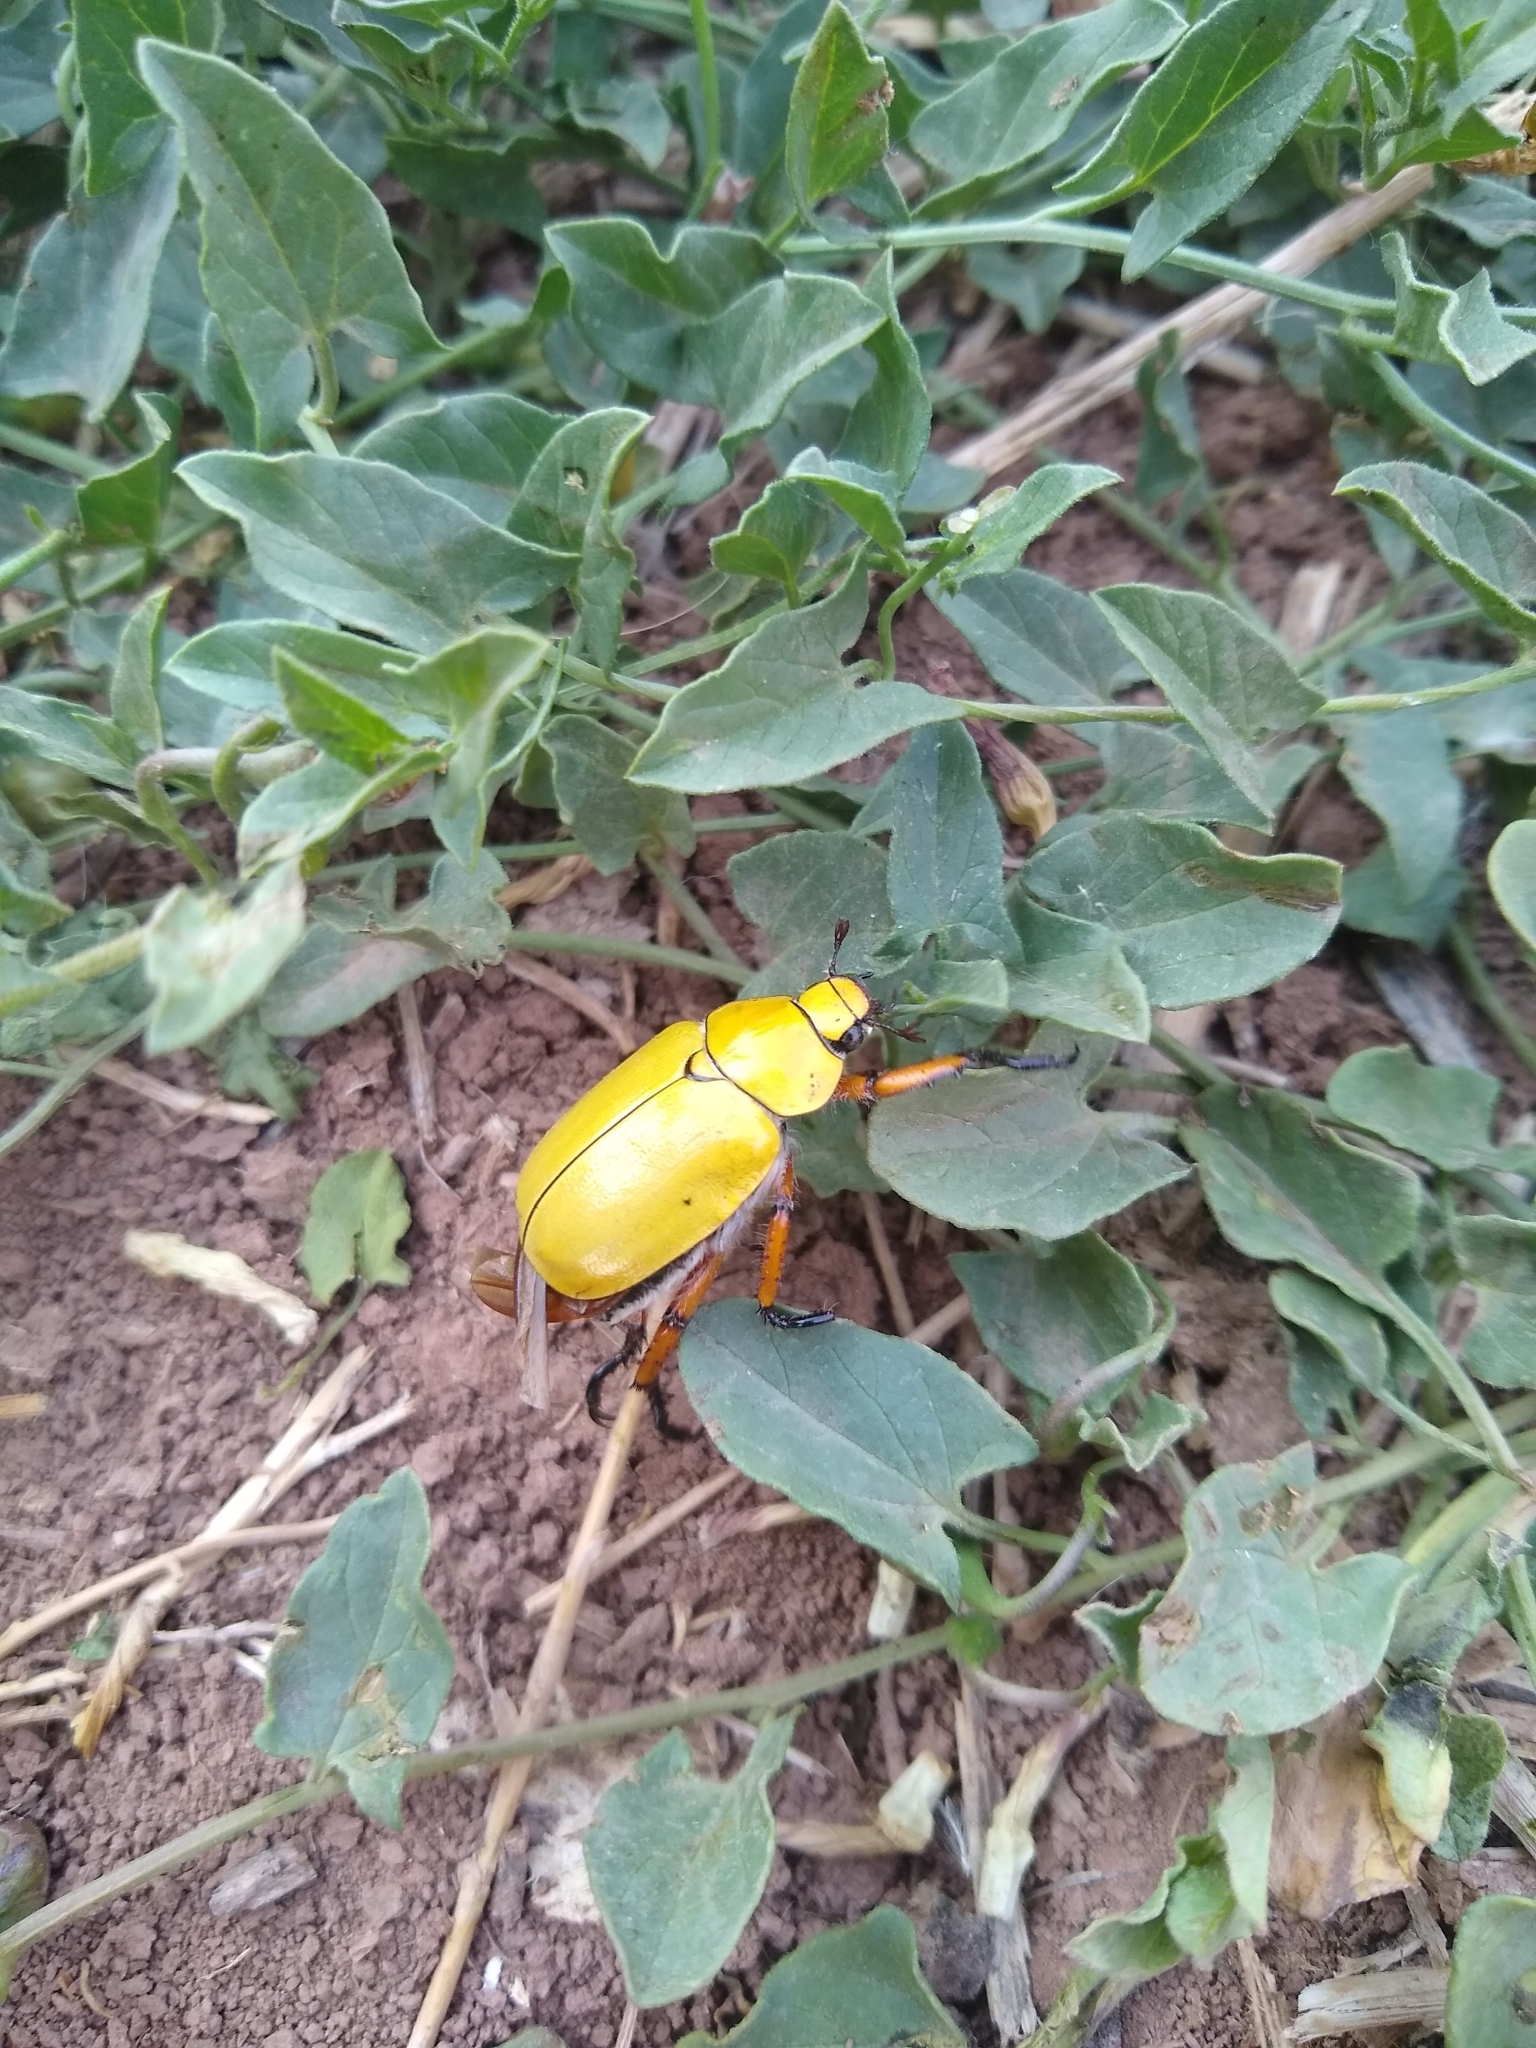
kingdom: Animalia
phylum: Arthropoda
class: Insecta
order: Coleoptera
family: Scarabaeidae
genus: Cotalpa
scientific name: Cotalpa flavida
